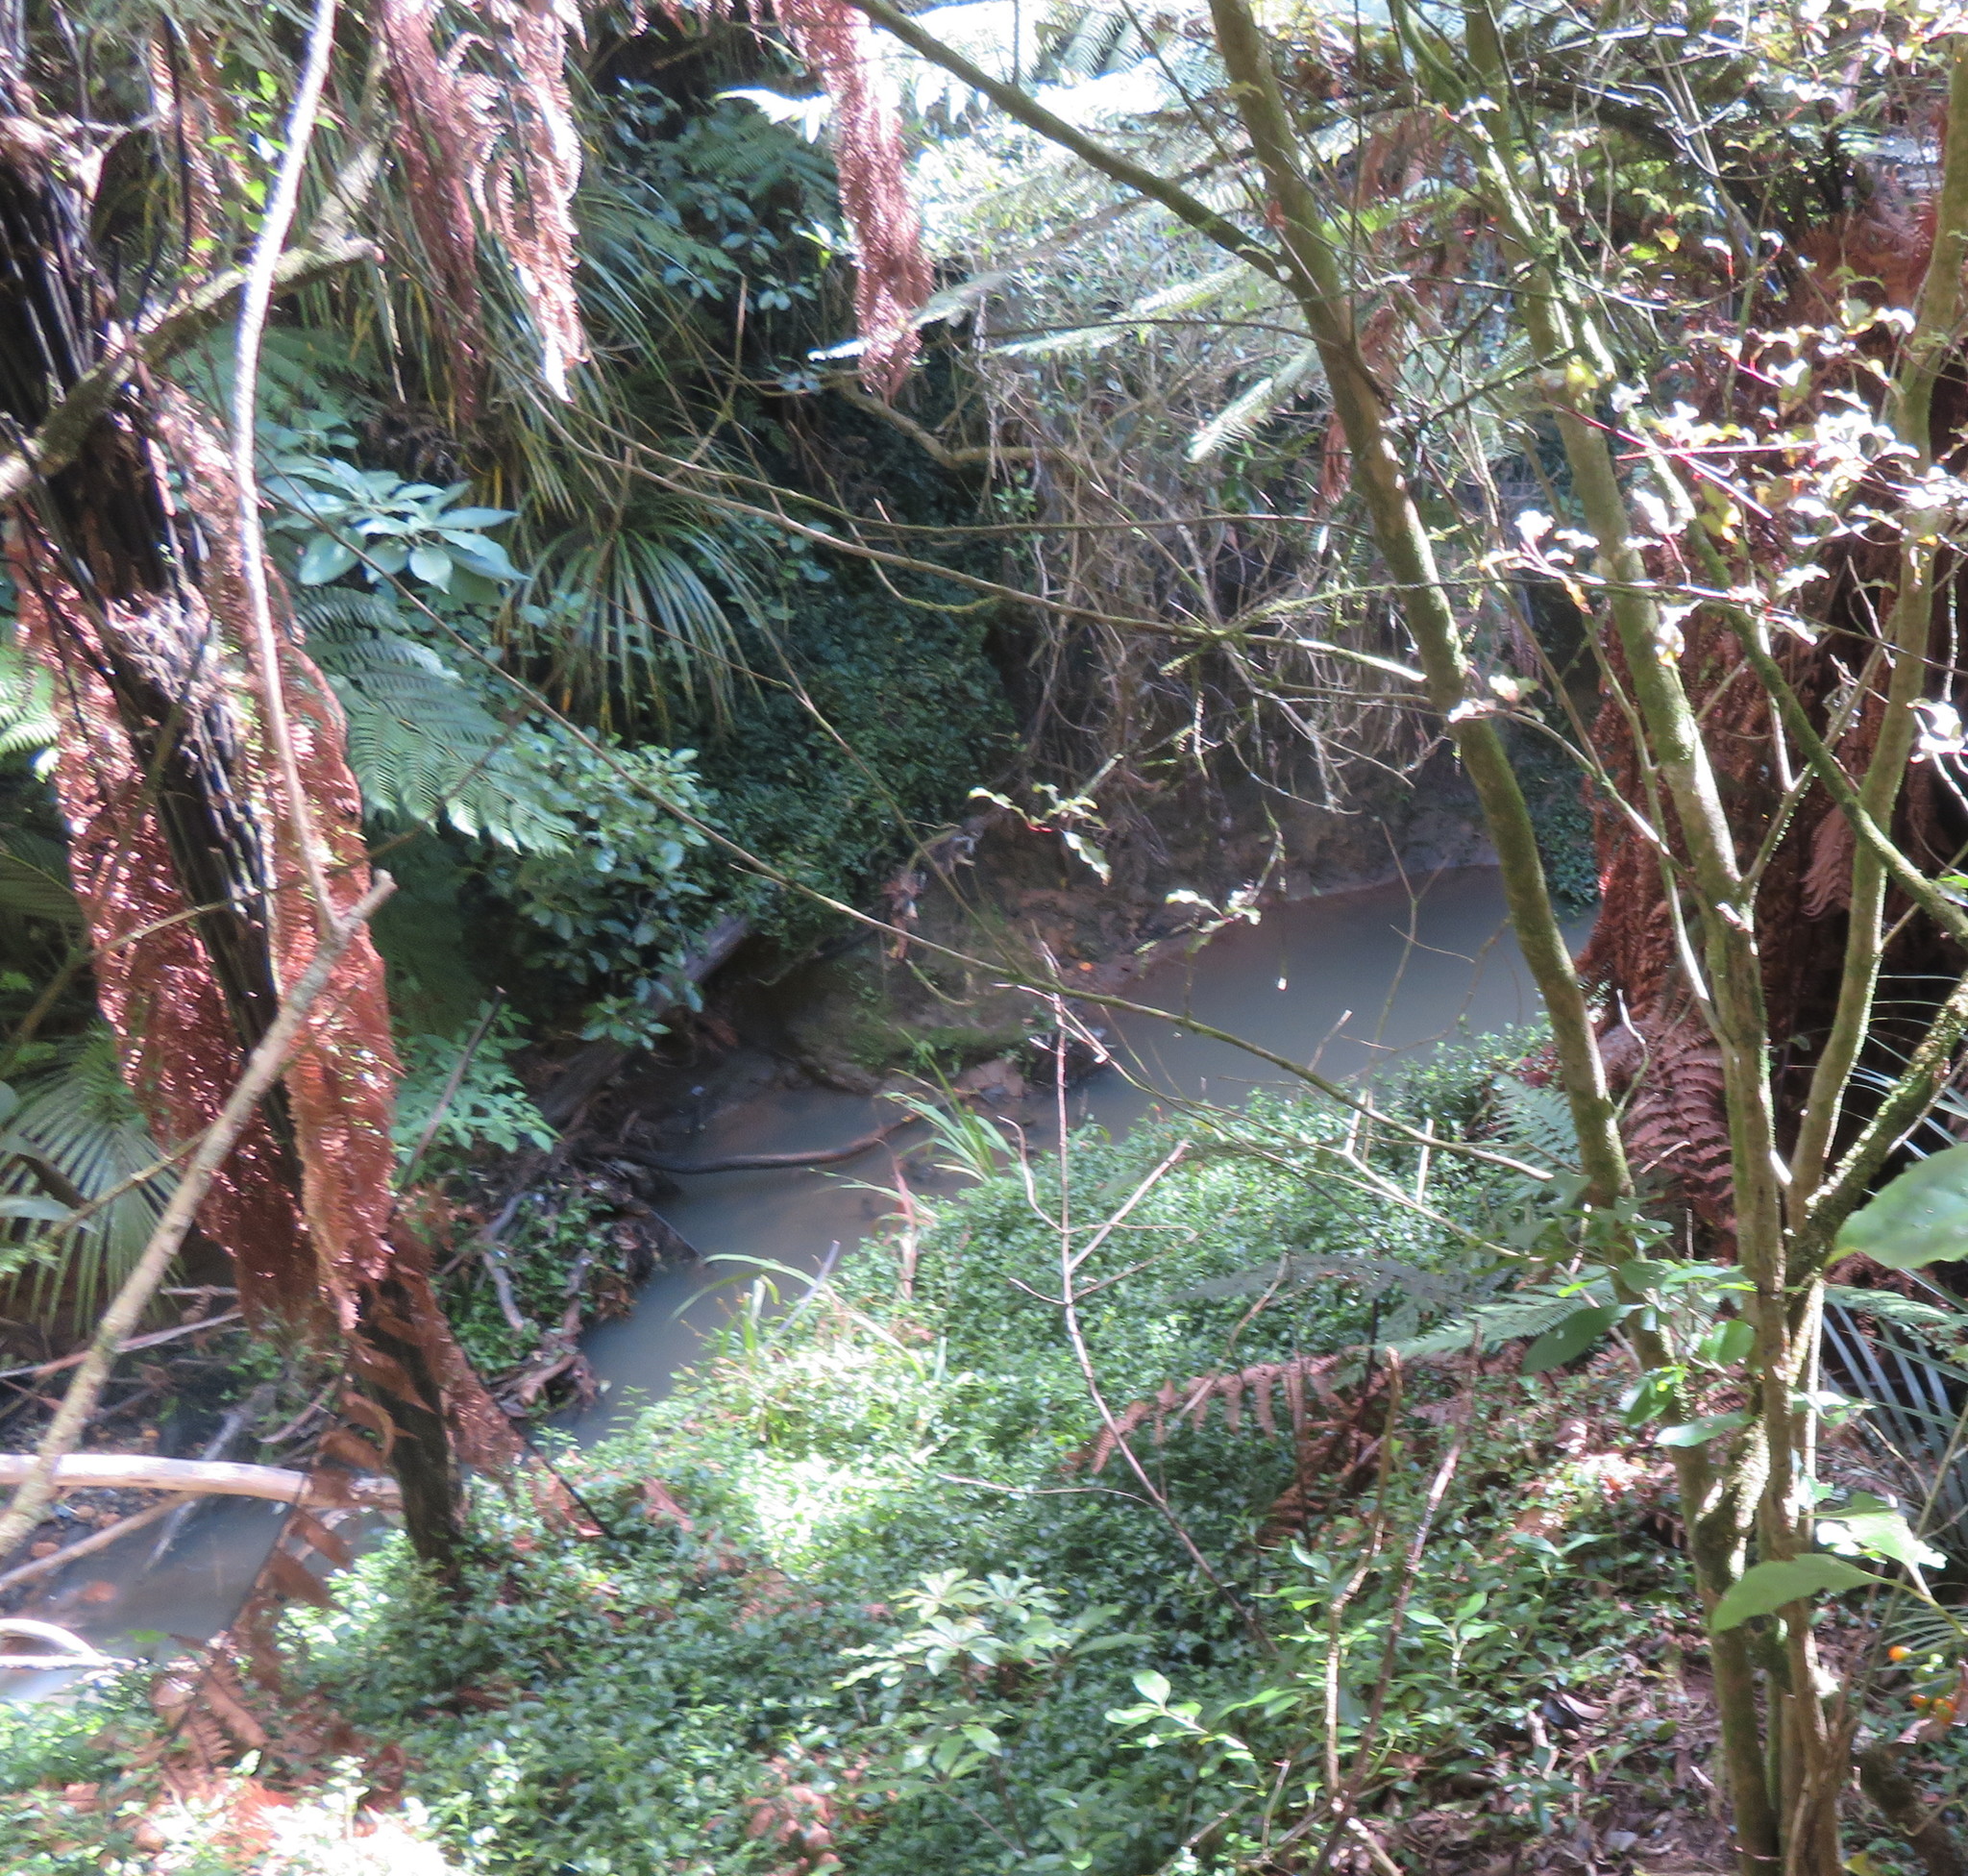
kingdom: Plantae
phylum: Tracheophyta
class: Magnoliopsida
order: Ericales
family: Primulaceae
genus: Myrsine
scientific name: Myrsine australis
